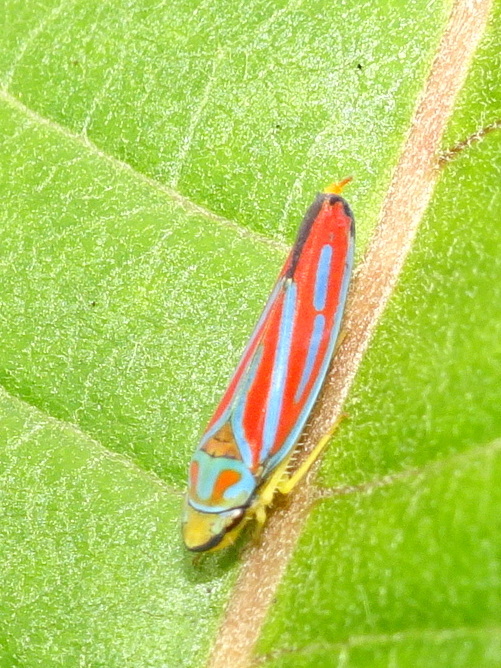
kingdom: Animalia
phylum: Arthropoda
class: Insecta
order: Hemiptera
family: Cicadellidae
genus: Graphocephala
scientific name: Graphocephala coccinea
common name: Candy-striped leafhopper
